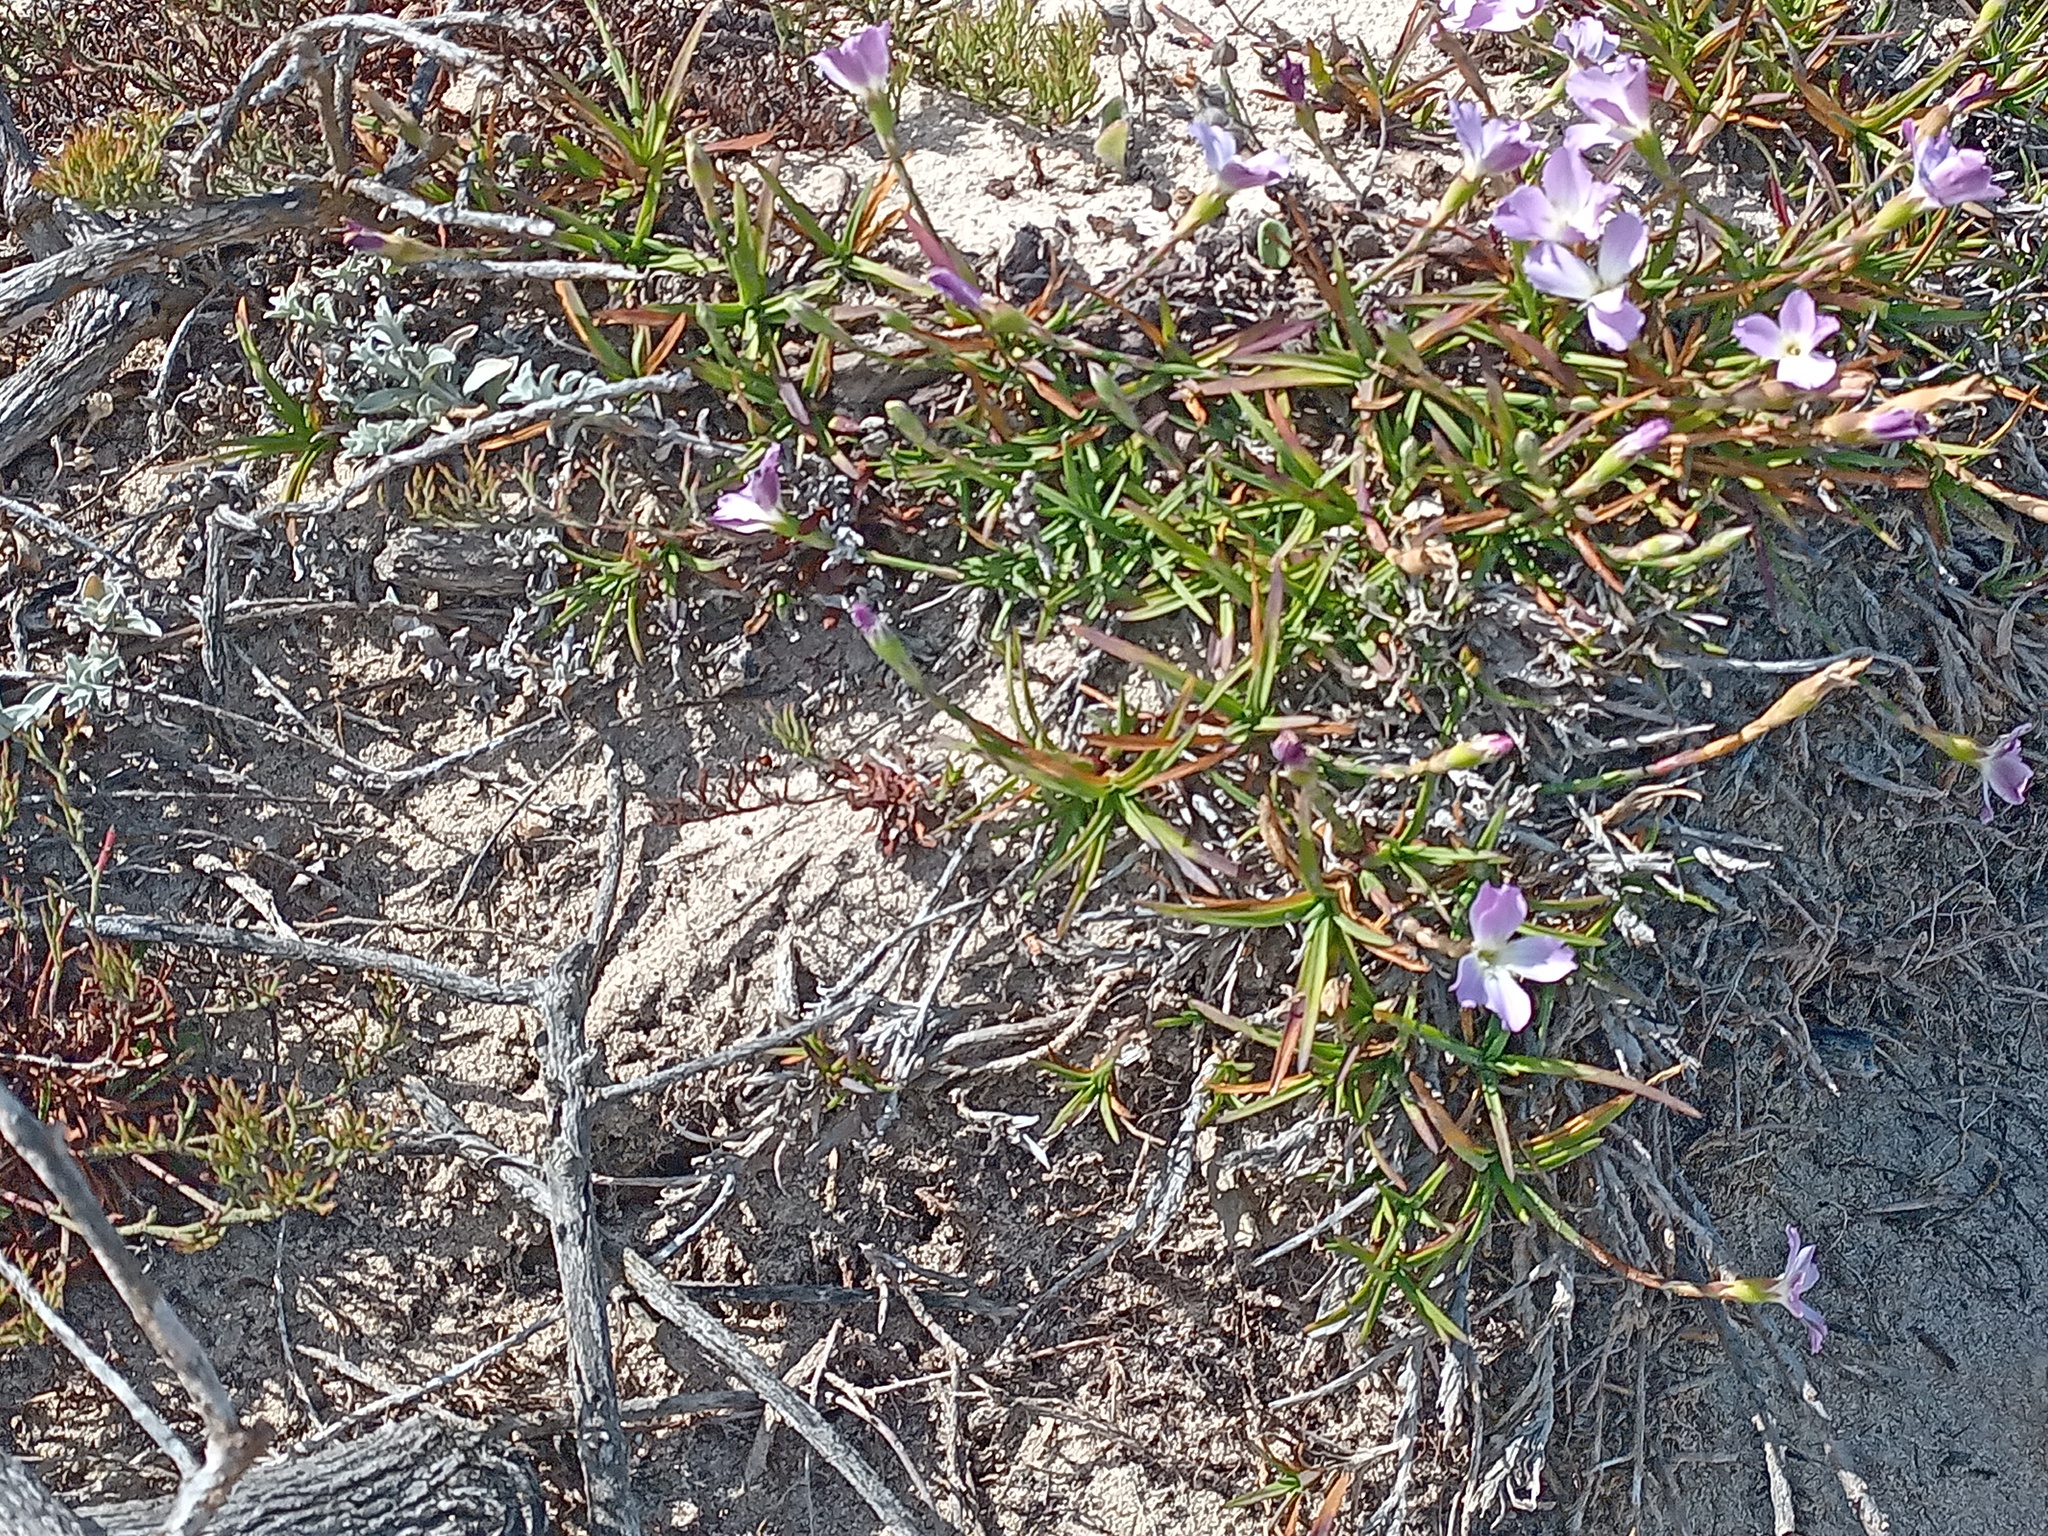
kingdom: Plantae
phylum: Tracheophyta
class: Magnoliopsida
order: Caryophyllales
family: Caryophyllaceae
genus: Dianthus
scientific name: Dianthus albens
